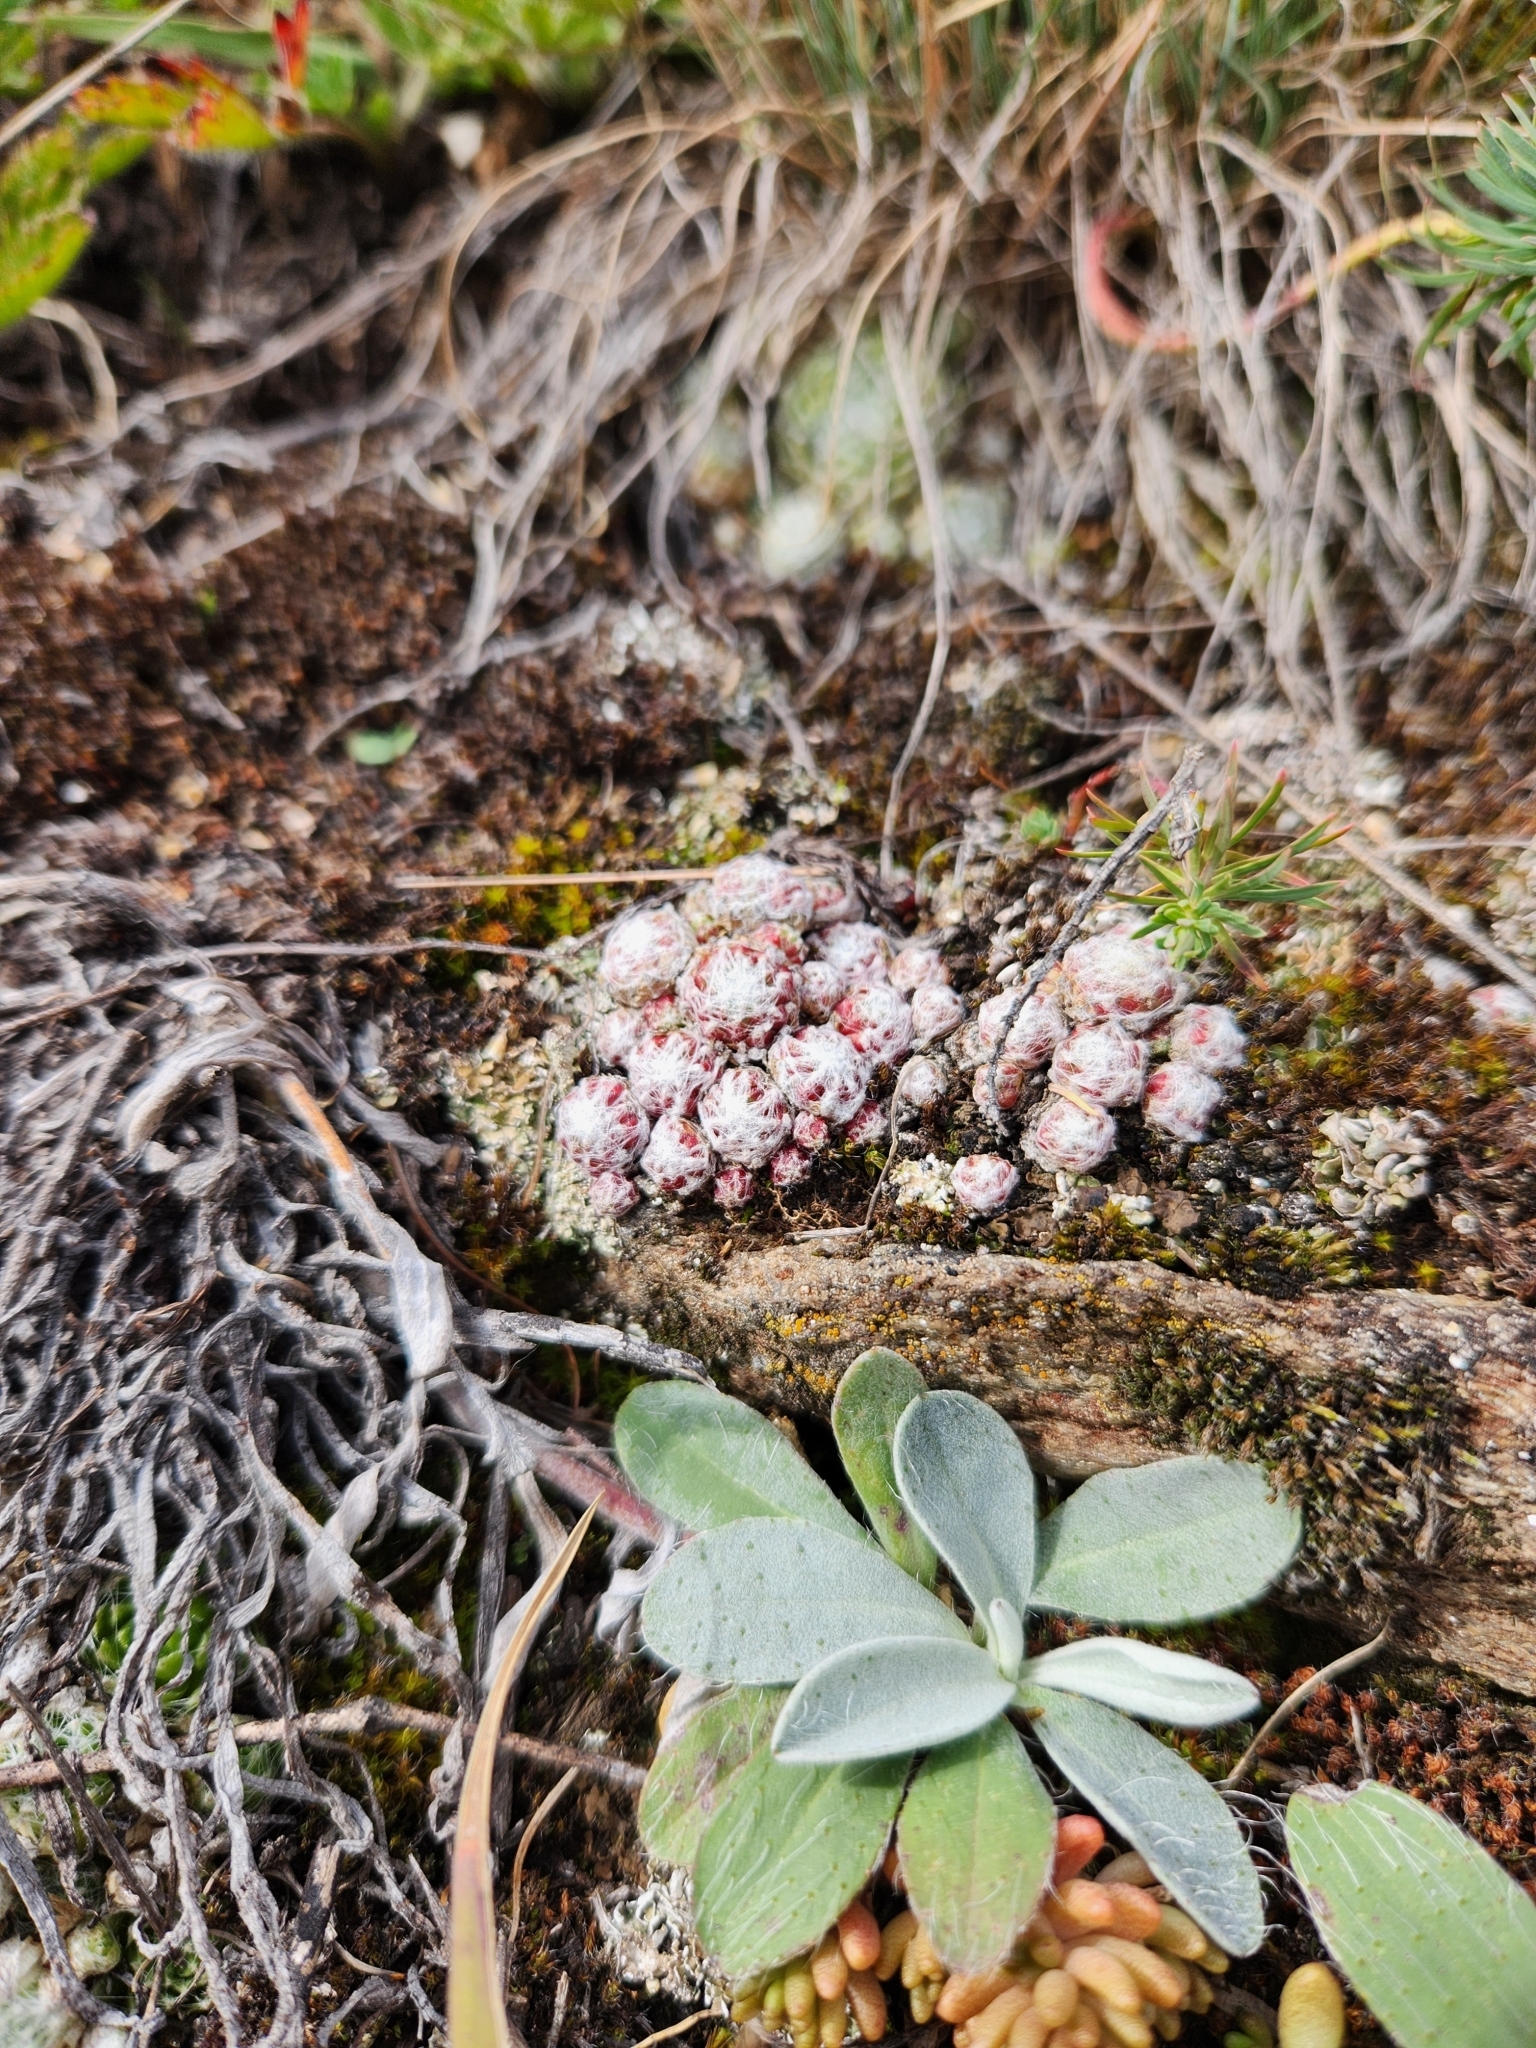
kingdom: Plantae
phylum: Tracheophyta
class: Magnoliopsida
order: Saxifragales
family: Crassulaceae
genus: Sempervivum
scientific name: Sempervivum arachnoideum
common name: Cobweb house-leek
